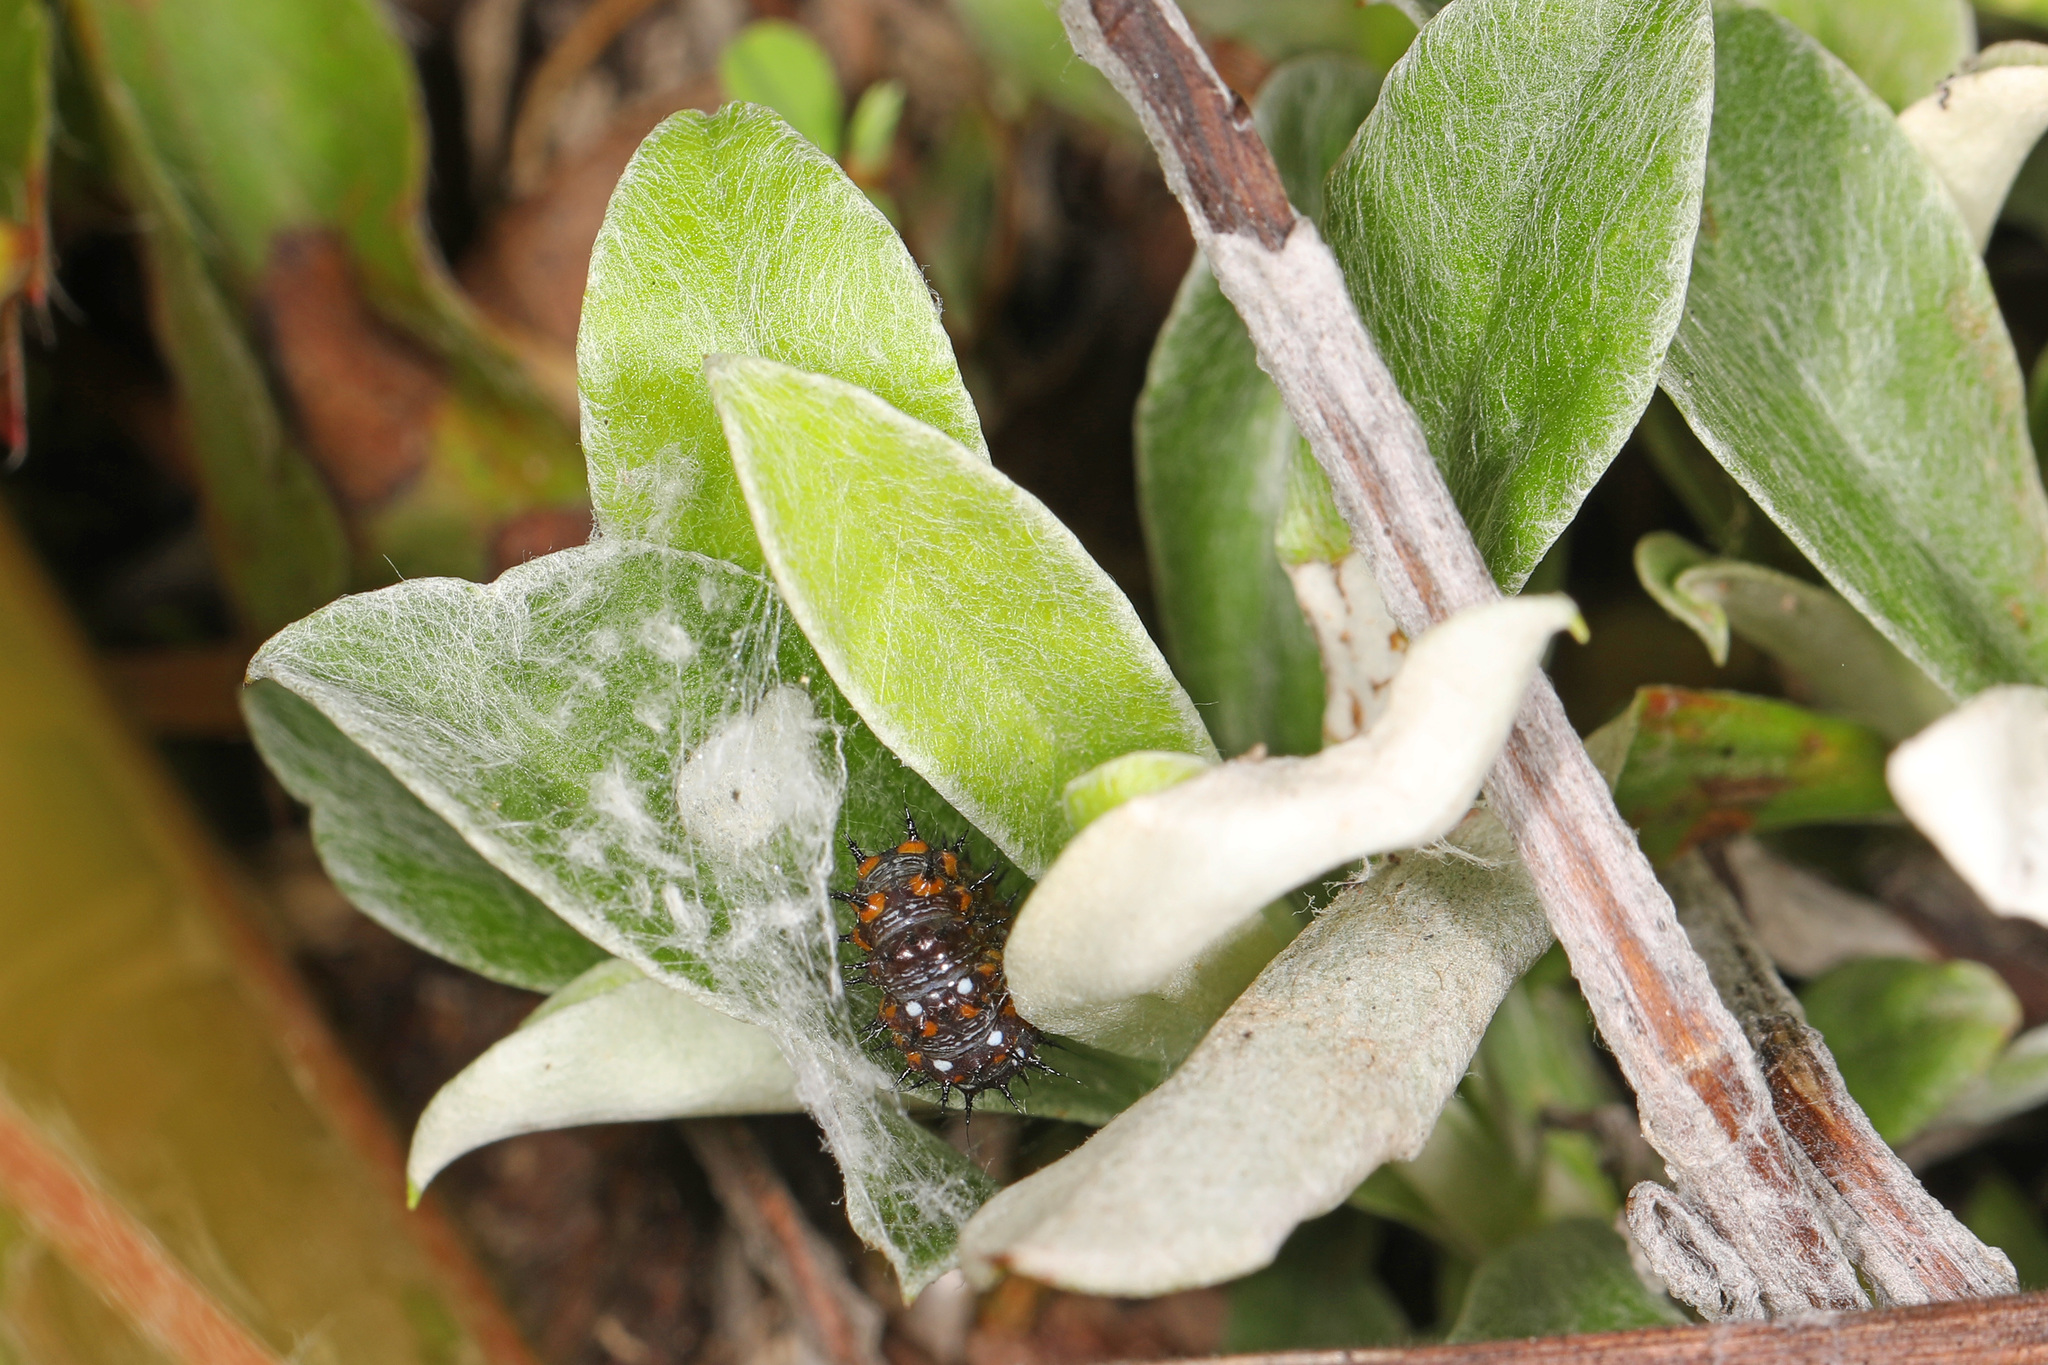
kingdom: Animalia
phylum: Arthropoda
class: Insecta
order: Lepidoptera
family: Nymphalidae
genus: Vanessa
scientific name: Vanessa virginiensis
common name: American lady
